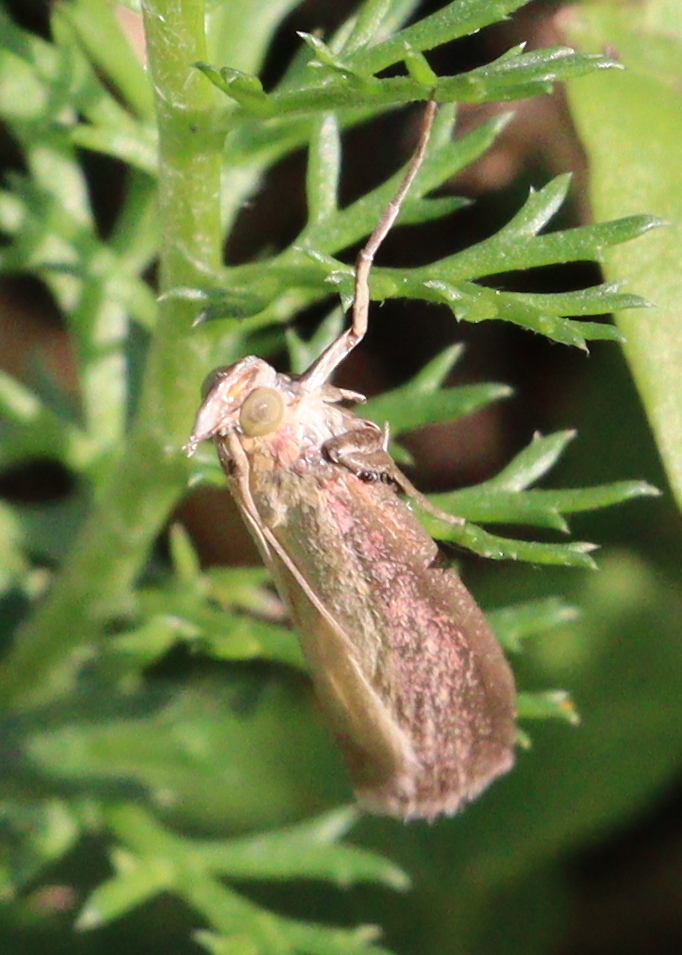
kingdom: Animalia
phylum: Arthropoda
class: Insecta
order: Lepidoptera
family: Pyralidae
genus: Oncocera
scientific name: Oncocera semirubella
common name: Rosy-striped knot-horn
